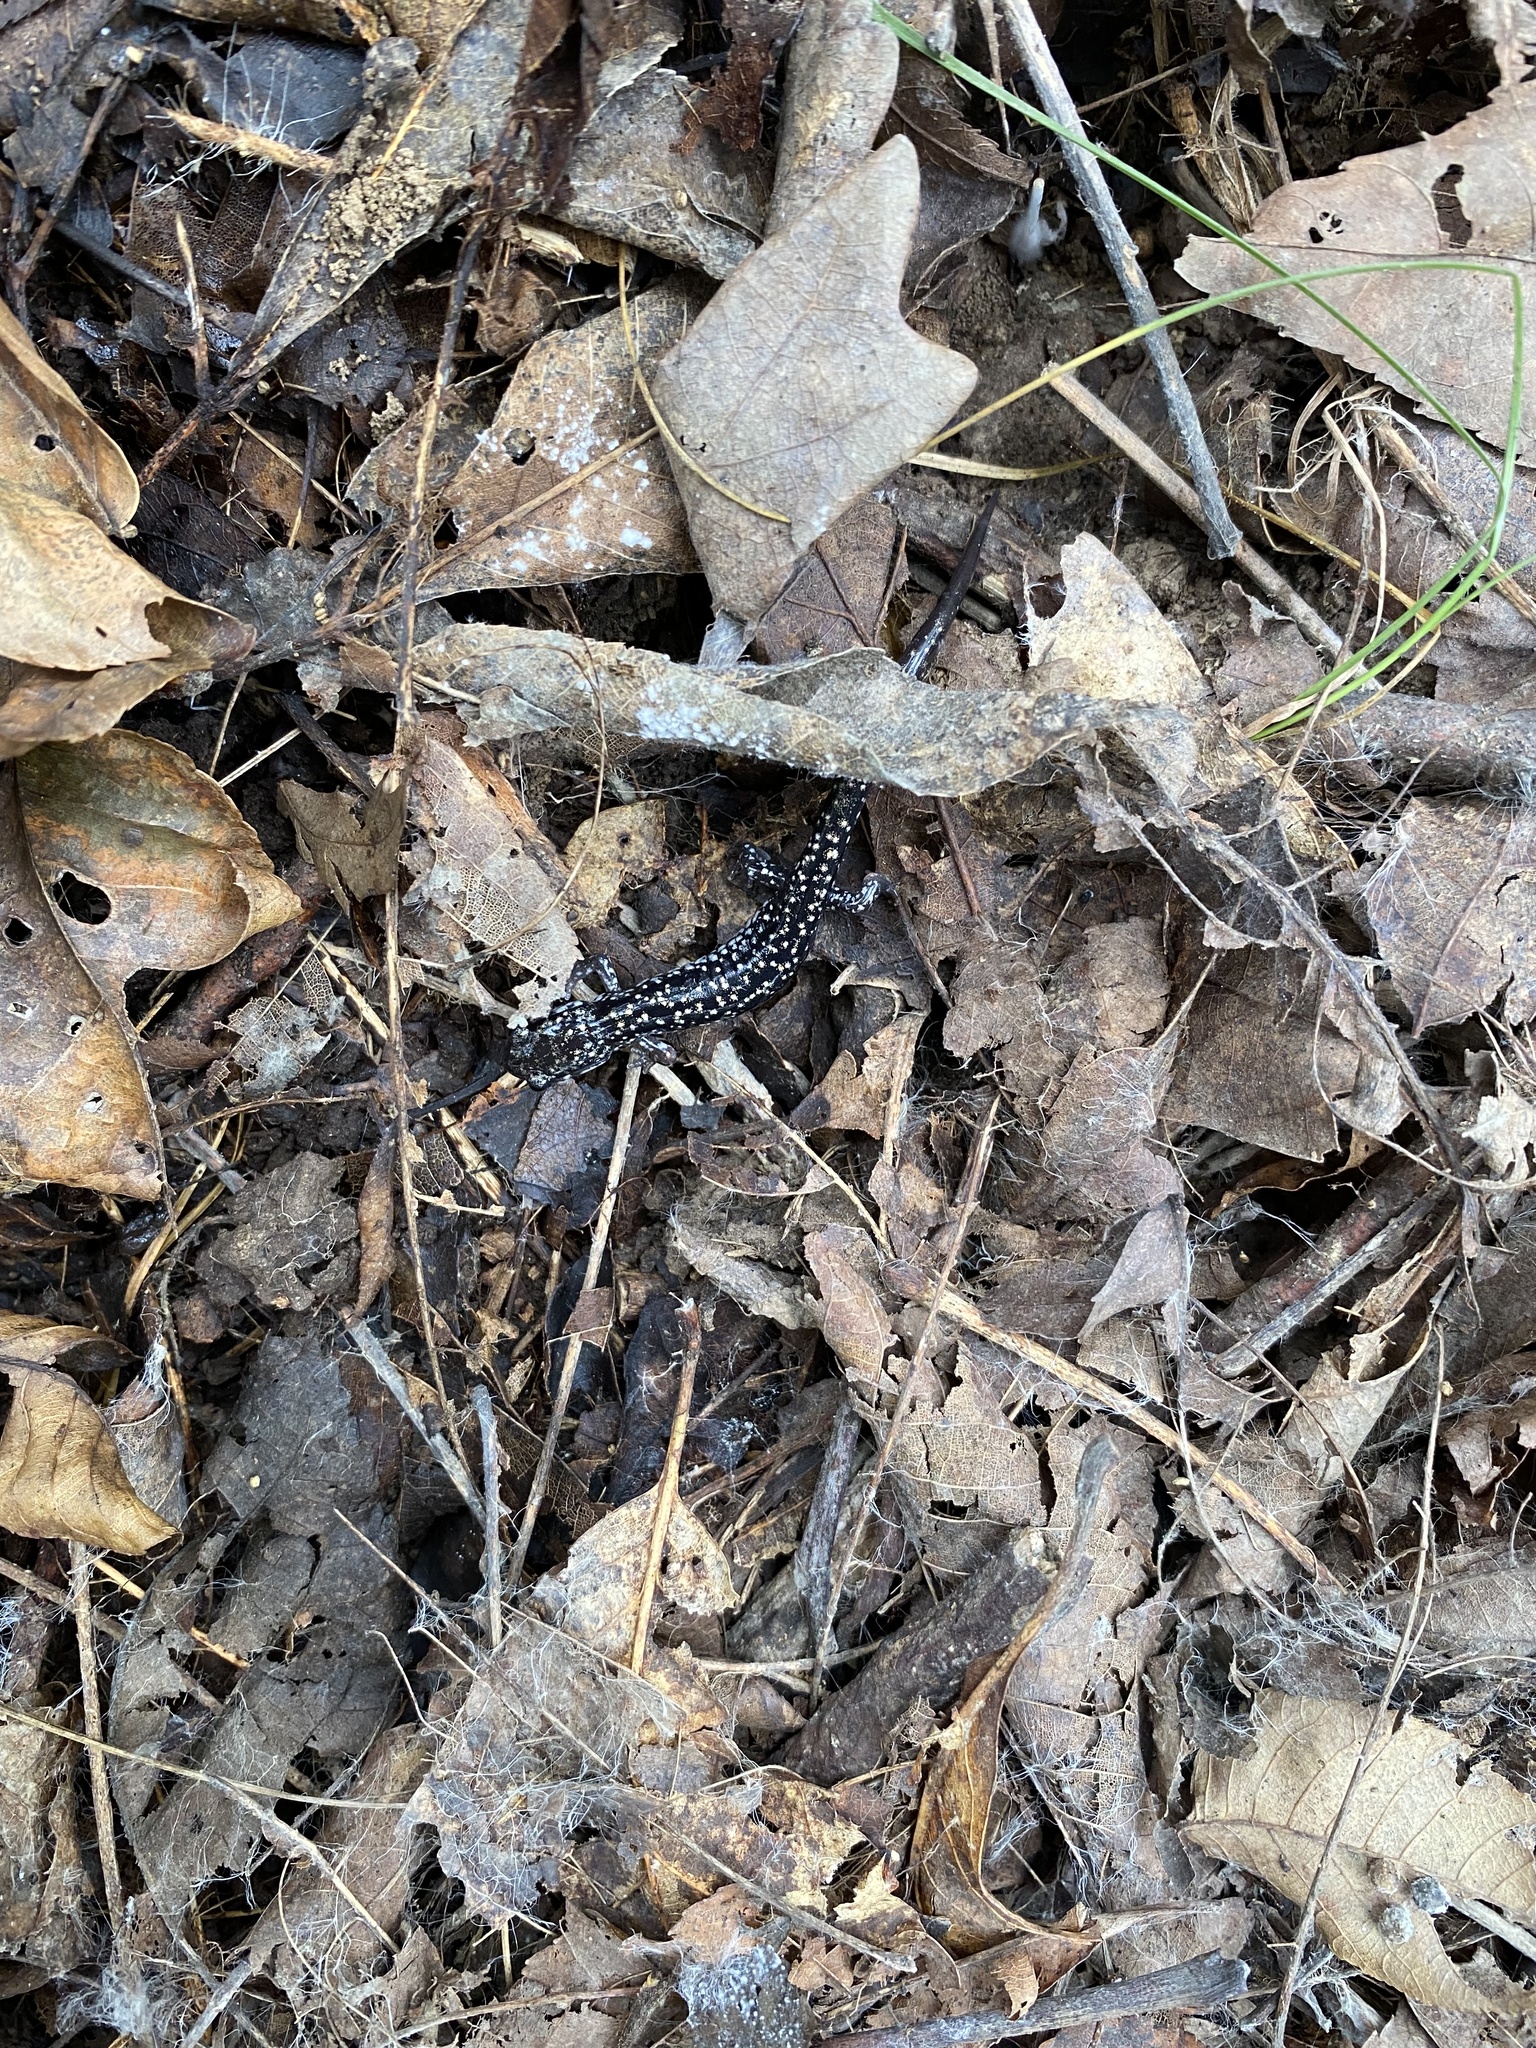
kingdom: Animalia
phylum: Chordata
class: Amphibia
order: Caudata
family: Plethodontidae
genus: Plethodon
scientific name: Plethodon glutinosus
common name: Northern slimy salamander
